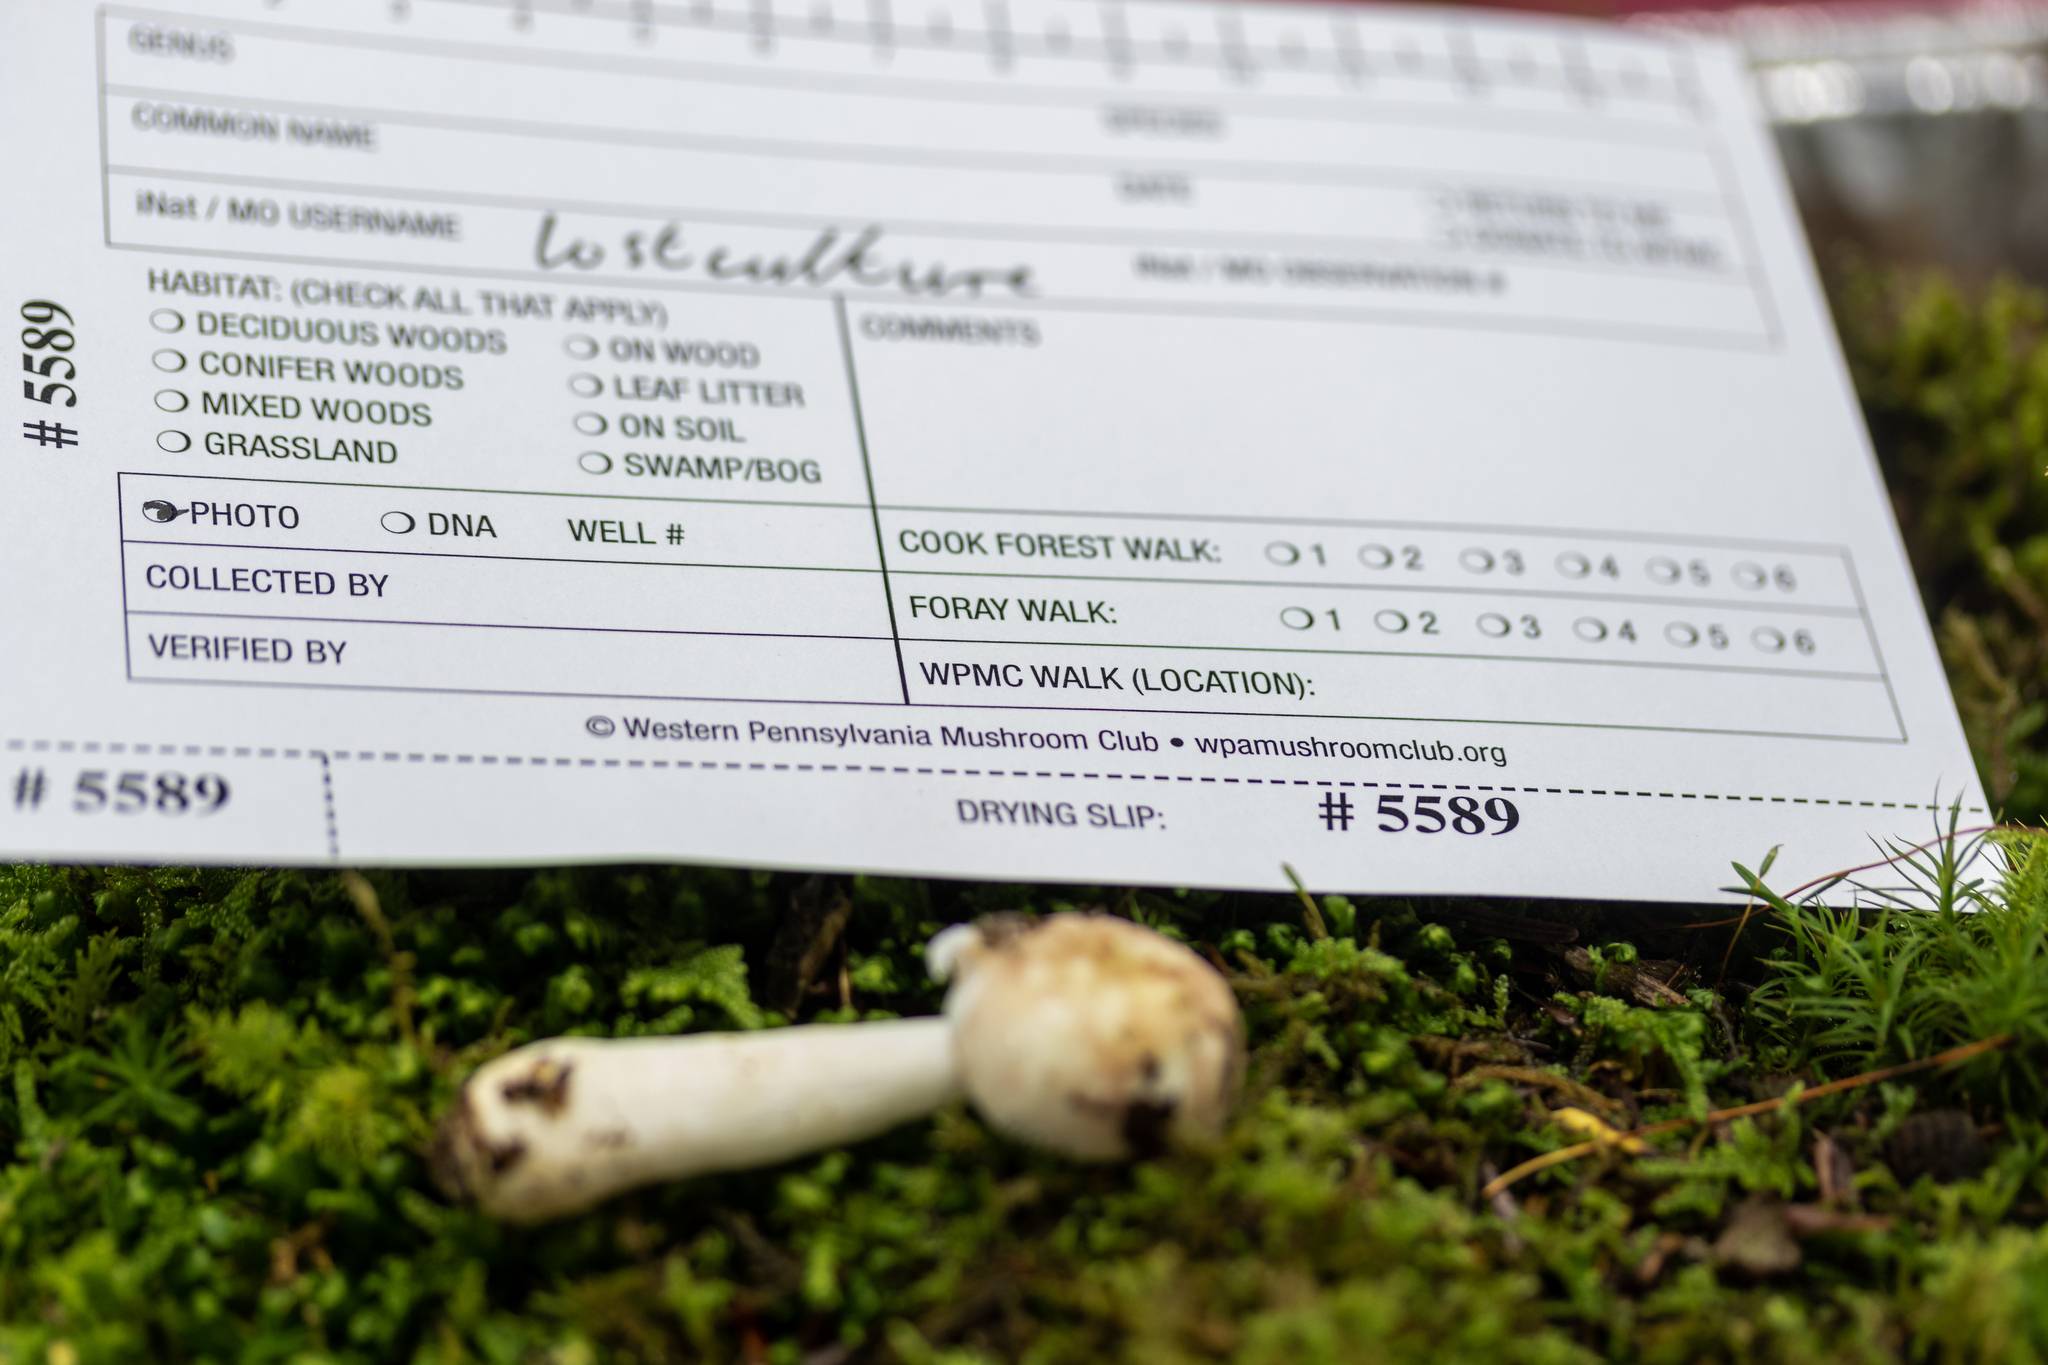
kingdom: Fungi
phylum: Ascomycota
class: Sordariomycetes
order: Hypocreales
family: Hypocreaceae
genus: Hypomyces
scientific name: Hypomyces sichuanensis
